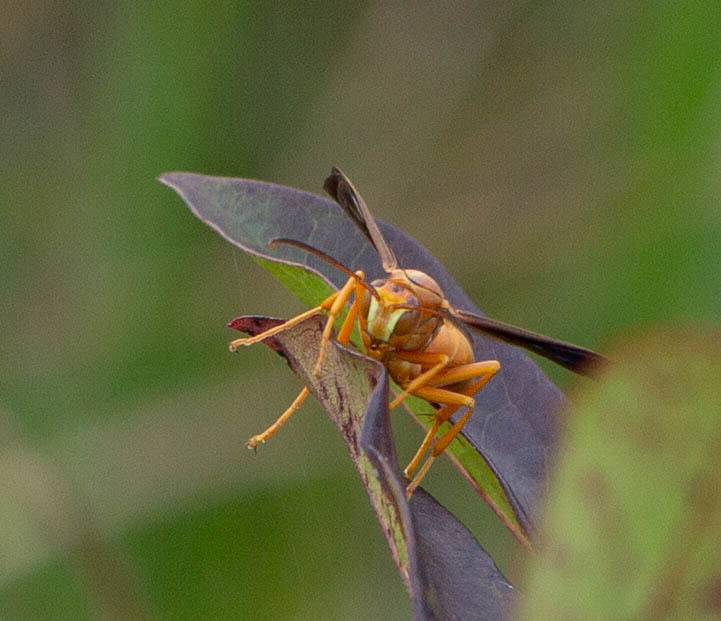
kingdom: Animalia
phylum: Arthropoda
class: Insecta
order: Hymenoptera
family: Eumenidae
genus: Polistes
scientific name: Polistes carolina
